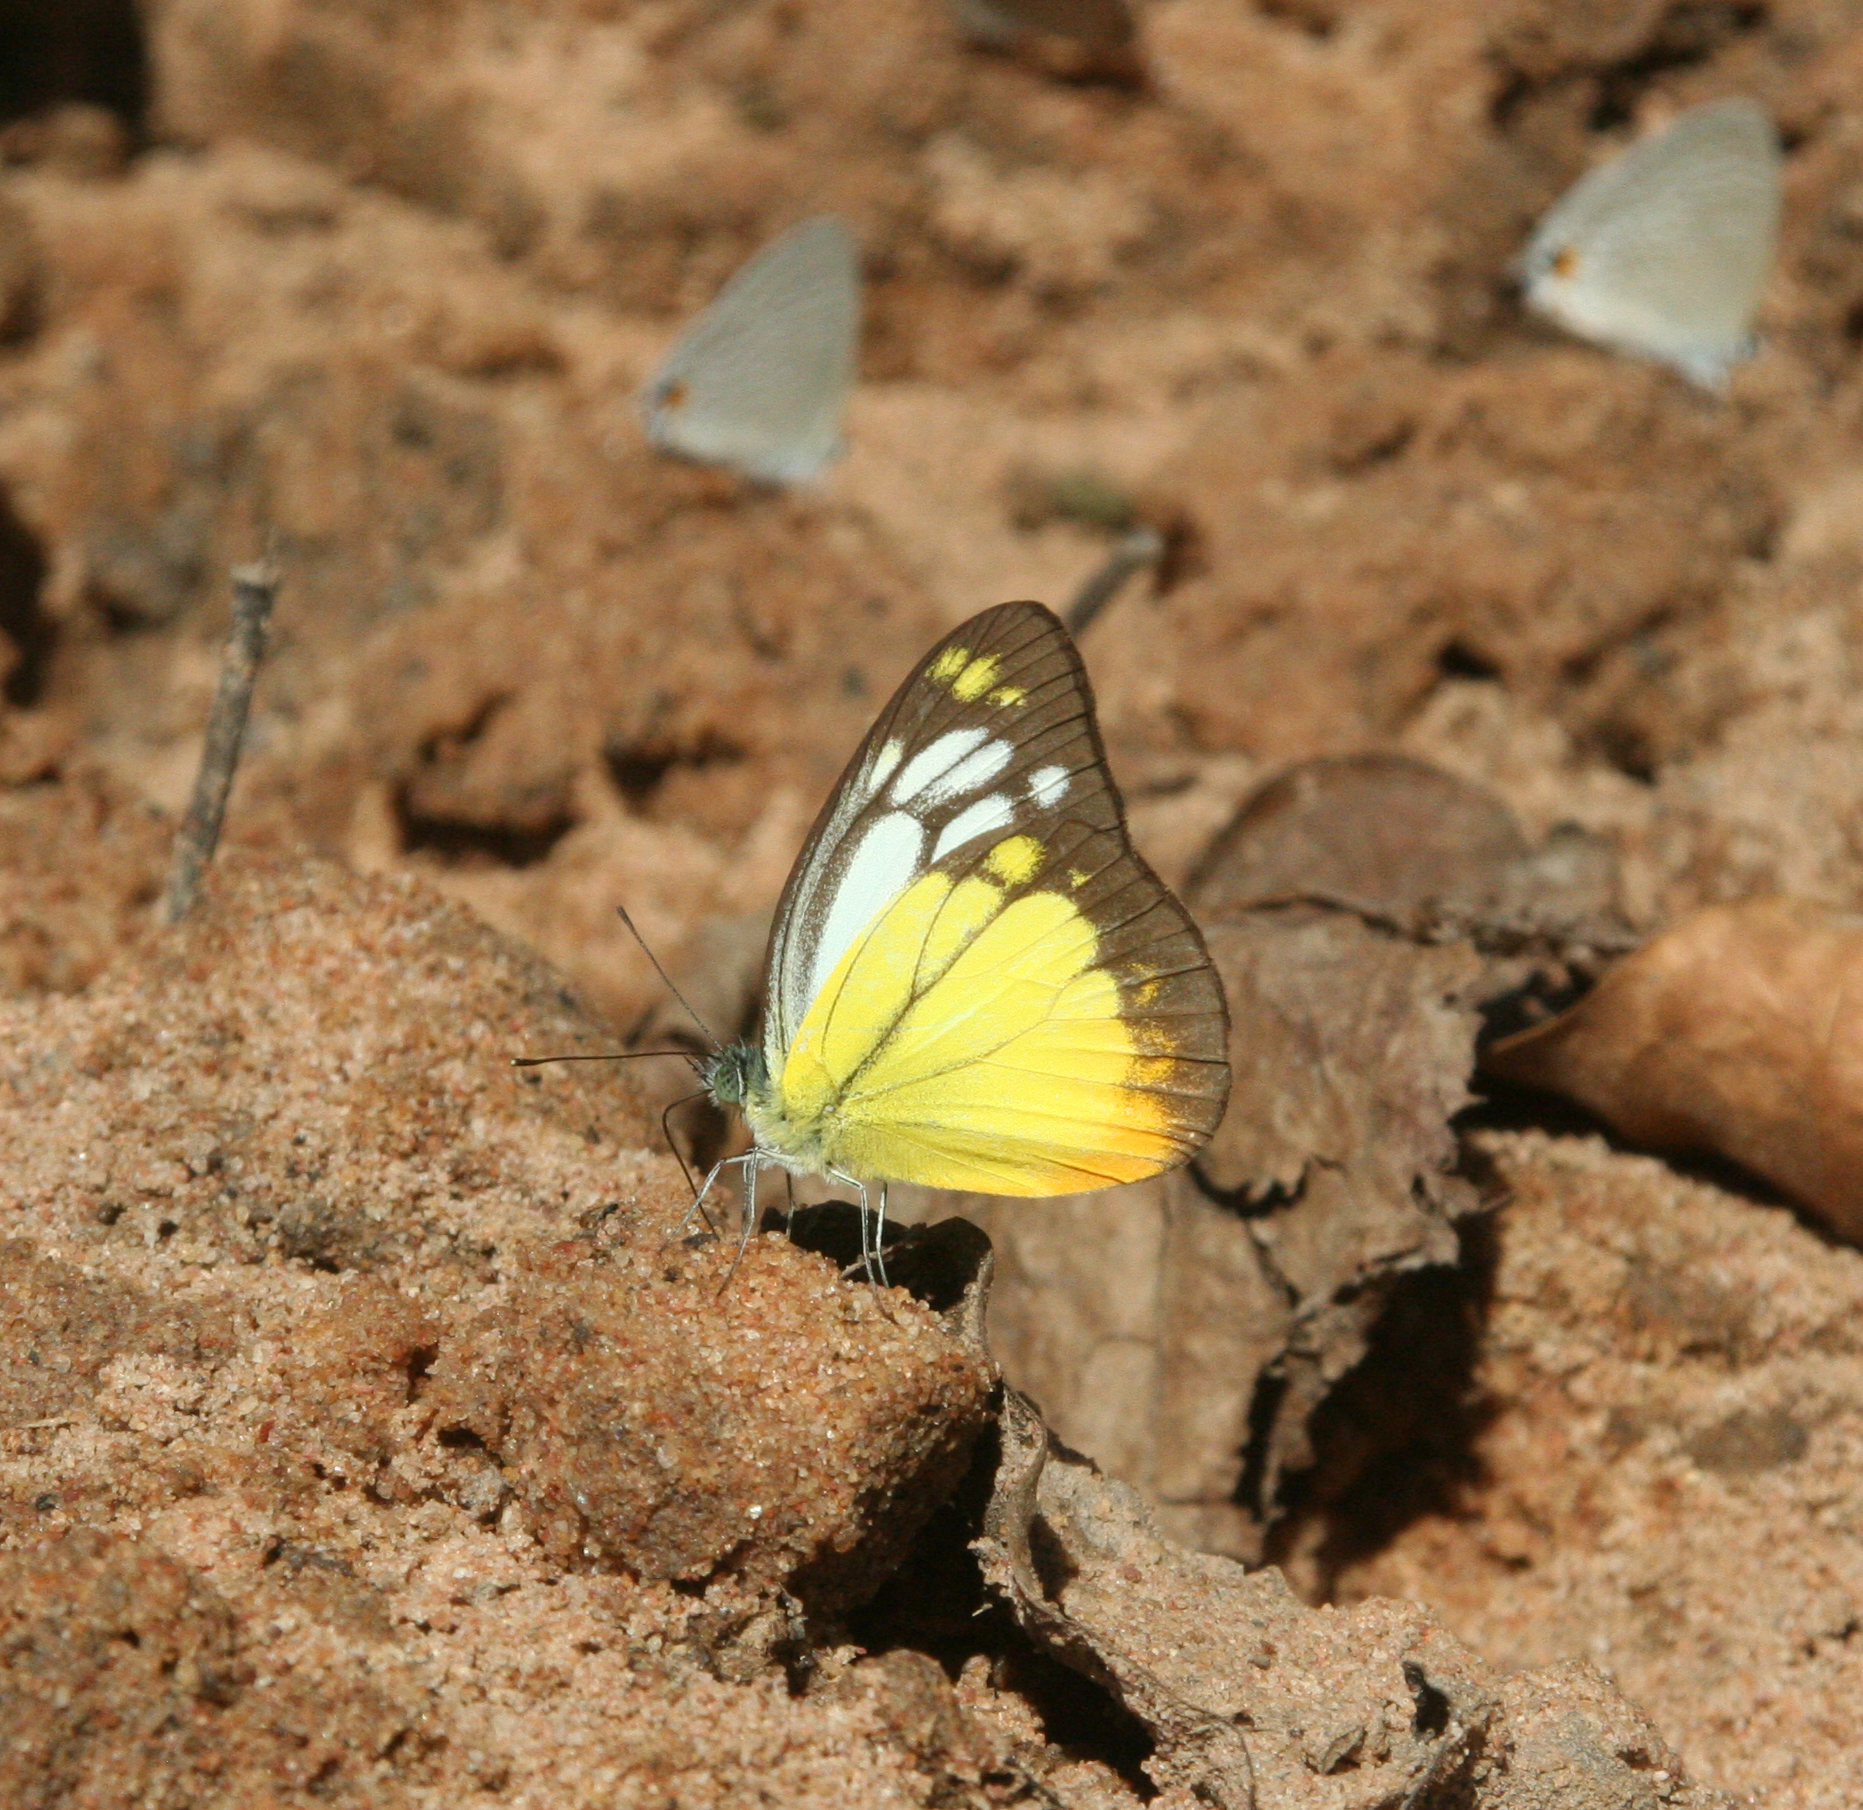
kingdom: Animalia
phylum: Arthropoda
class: Insecta
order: Lepidoptera
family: Pieridae
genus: Cepora
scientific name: Cepora iudith
